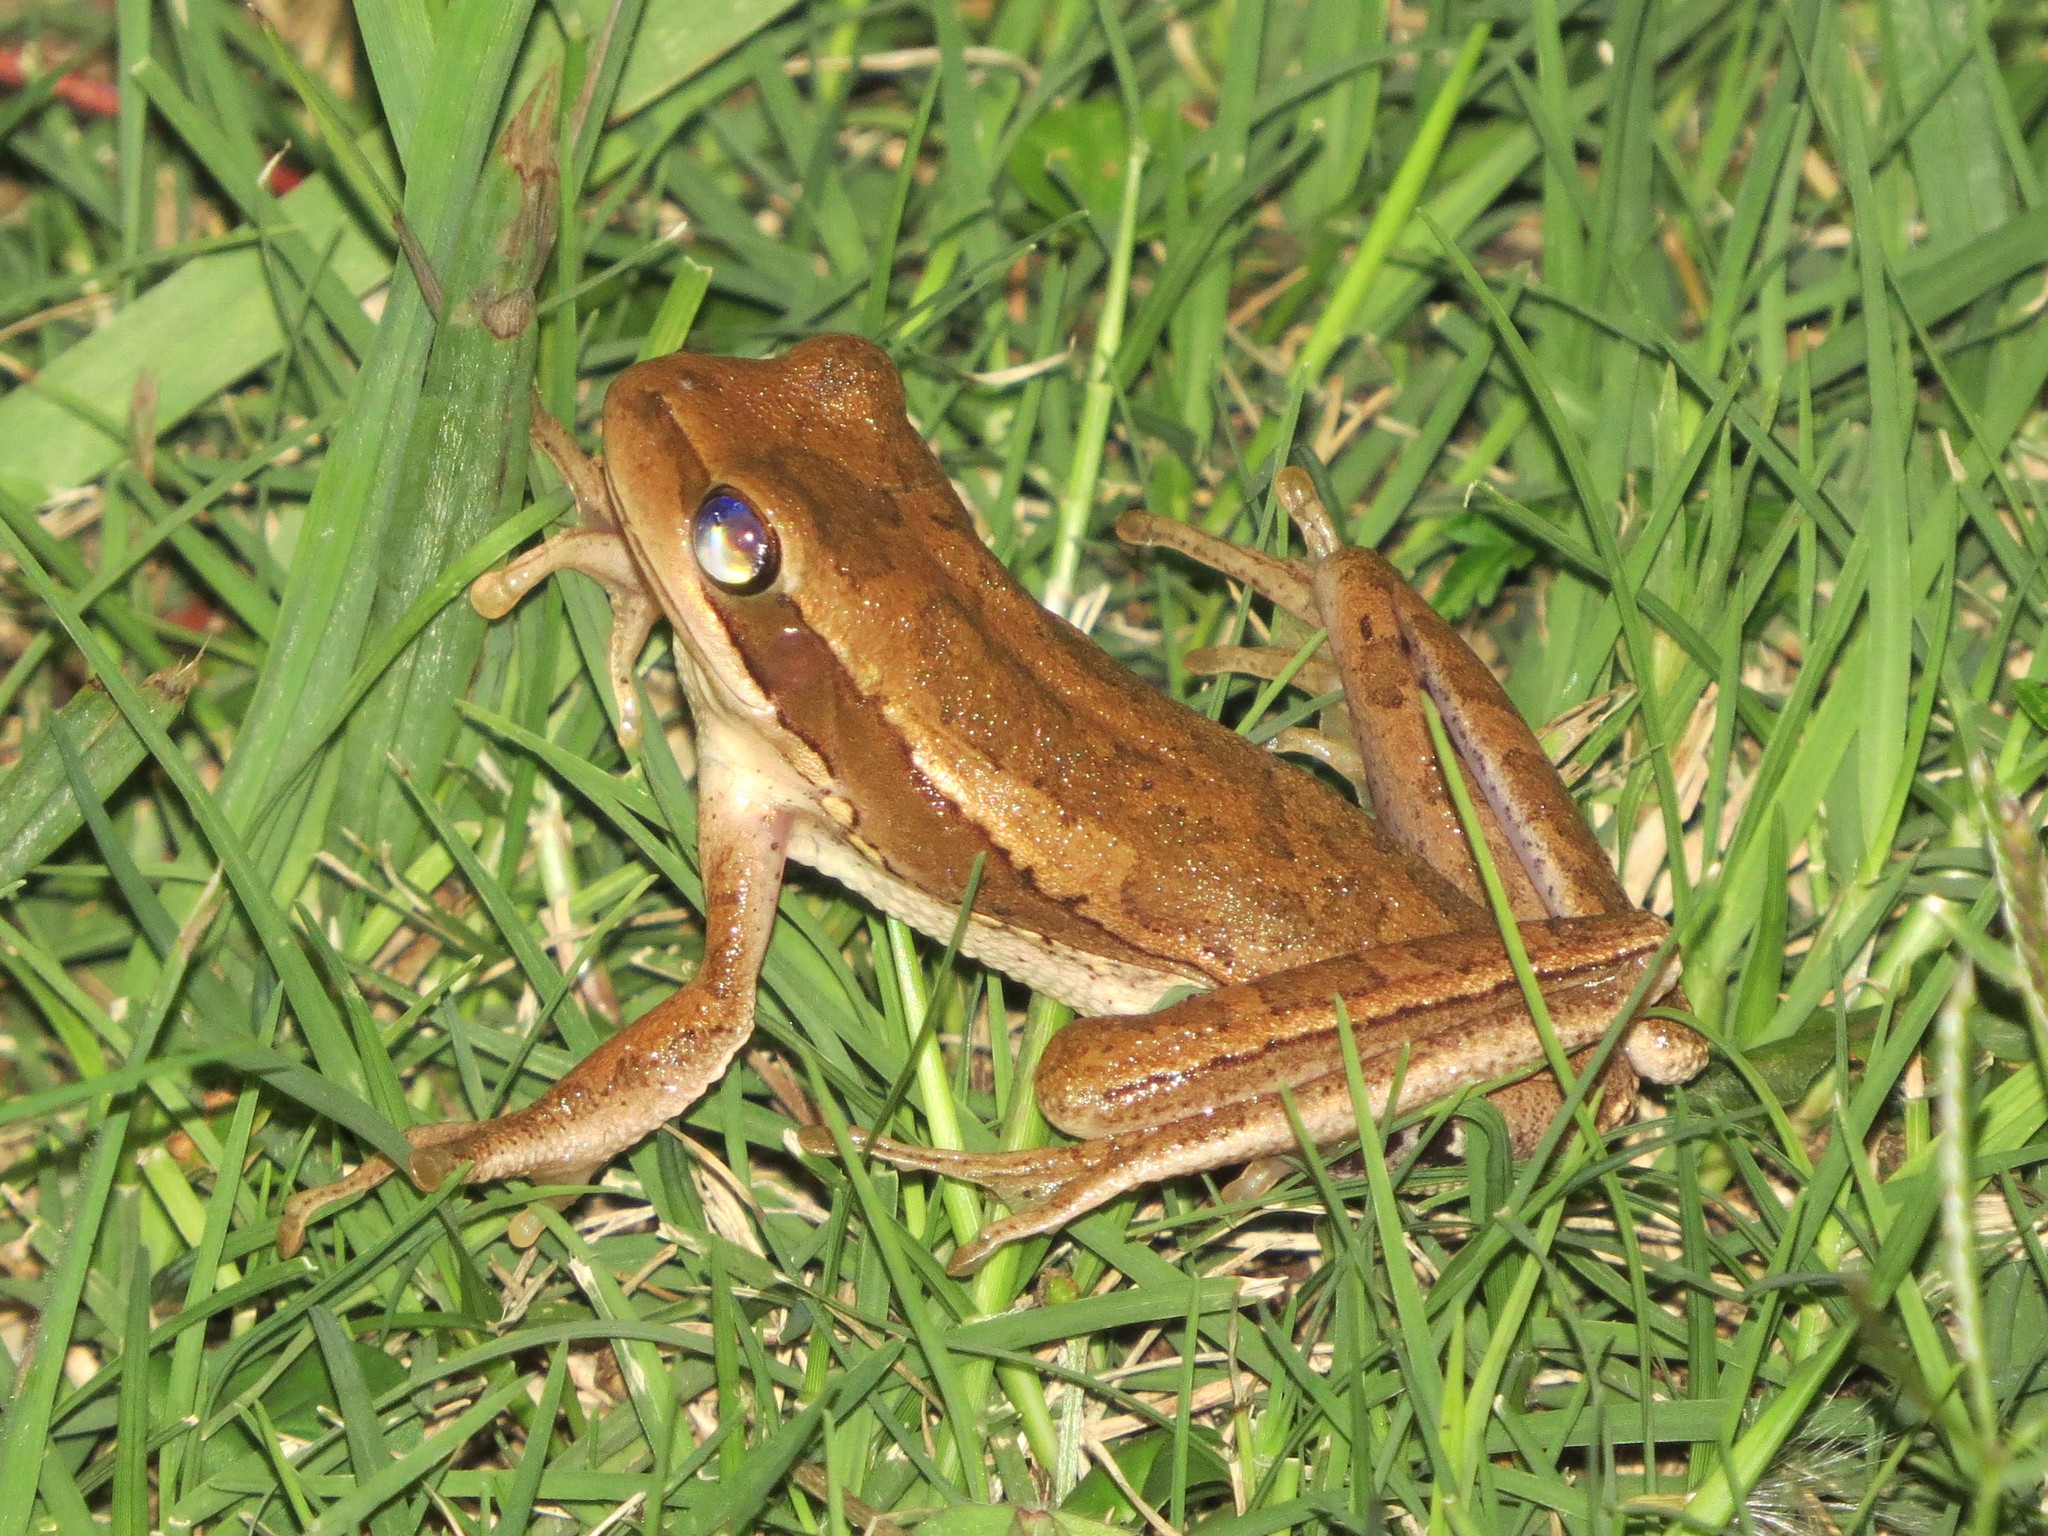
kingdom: Animalia
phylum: Chordata
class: Amphibia
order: Anura
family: Hylidae
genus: Boana
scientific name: Boana pulchella
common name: Montevideo treefrog
